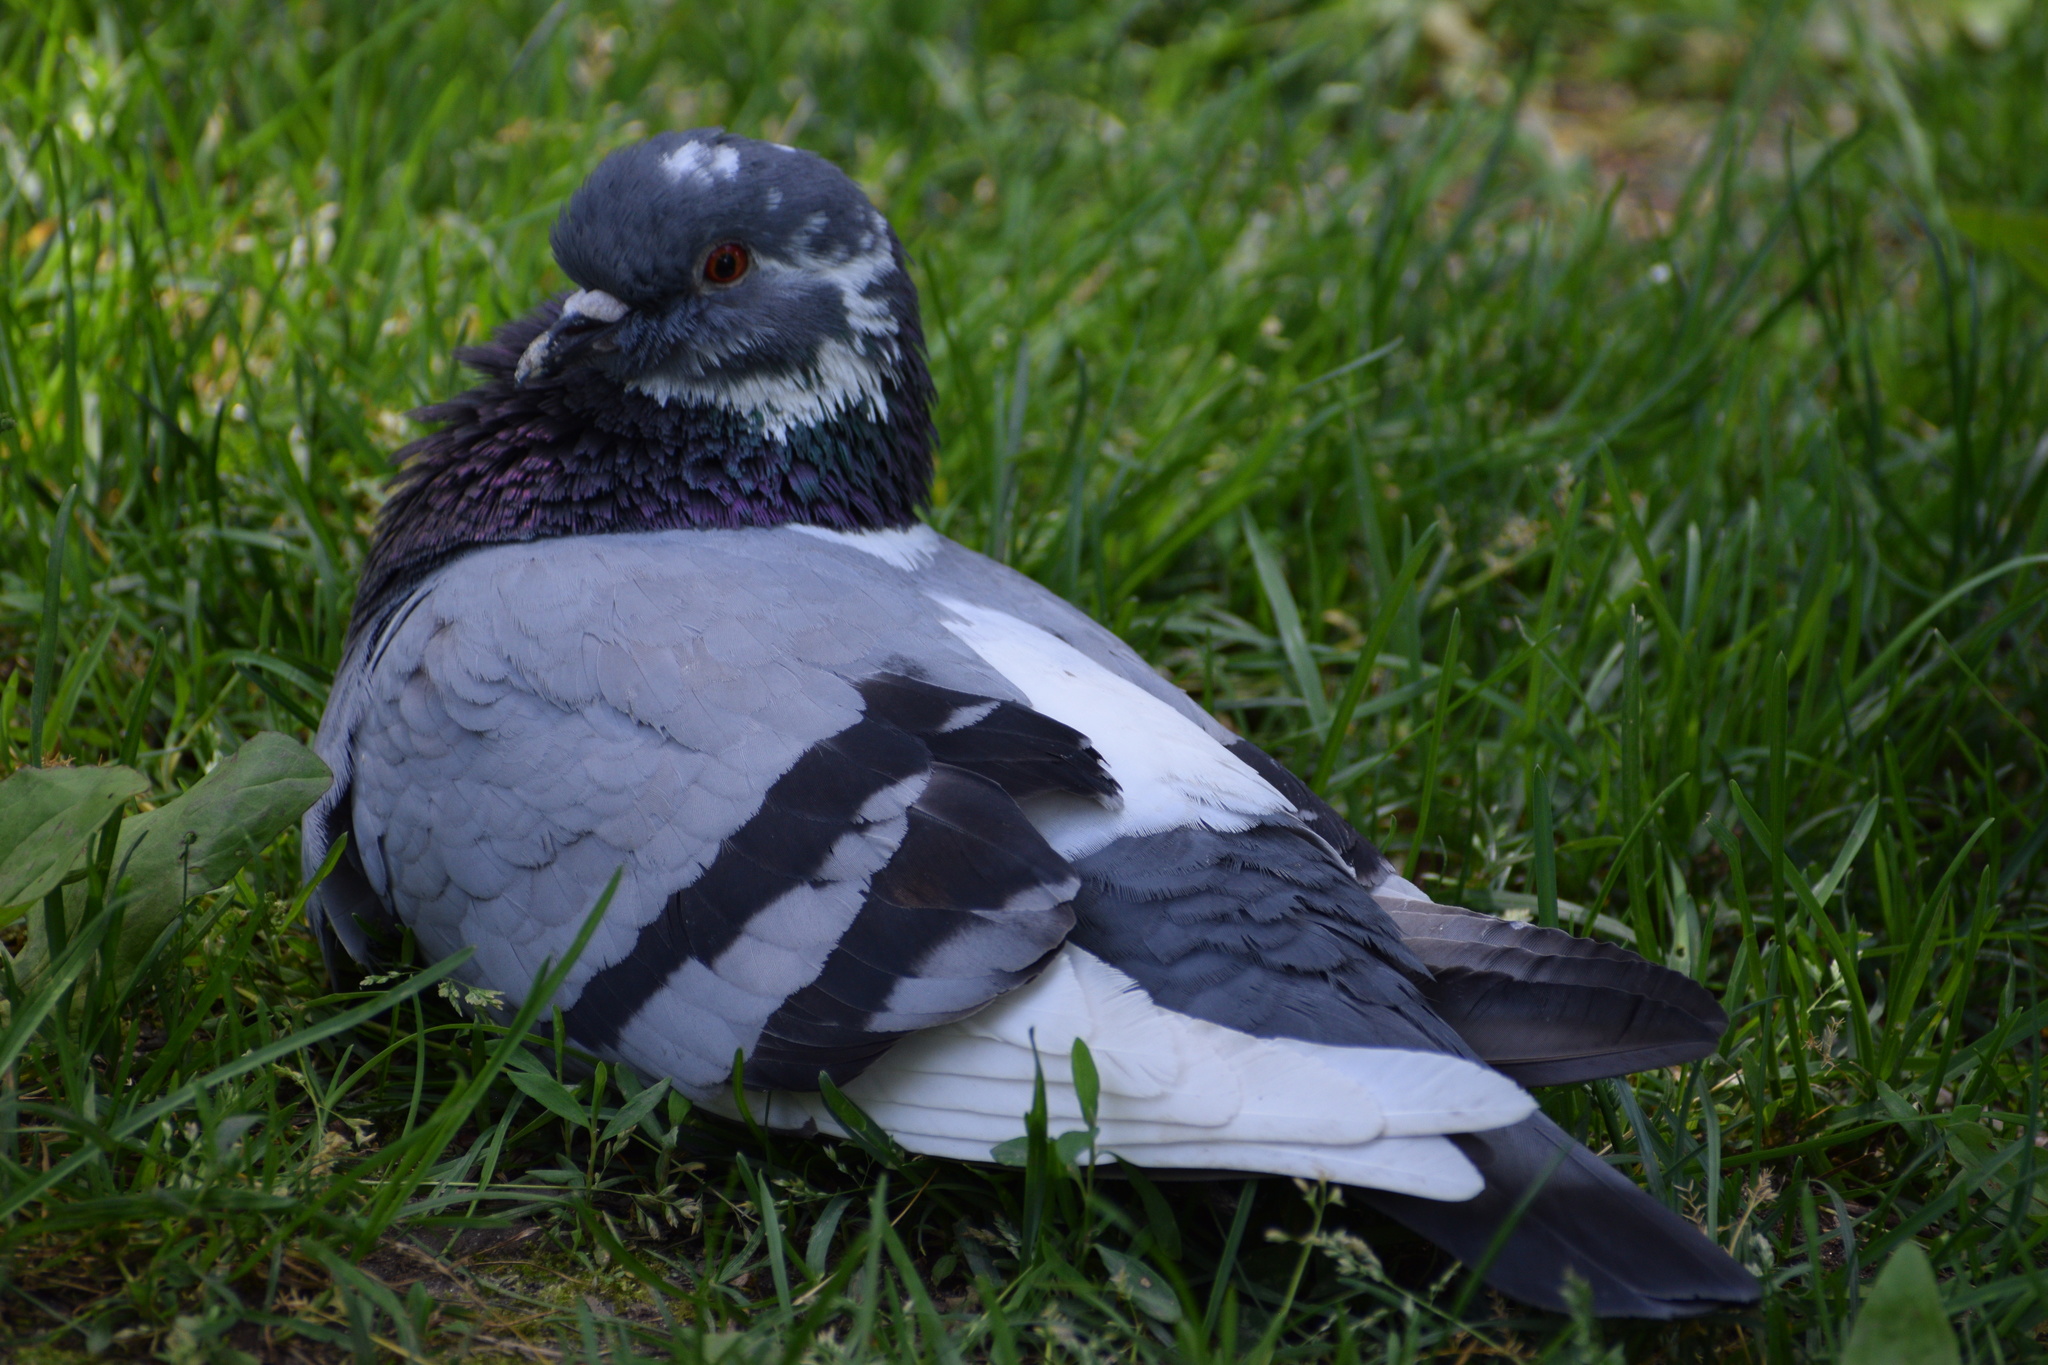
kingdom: Animalia
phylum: Chordata
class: Aves
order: Columbiformes
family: Columbidae
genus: Columba
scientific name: Columba livia
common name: Rock pigeon
